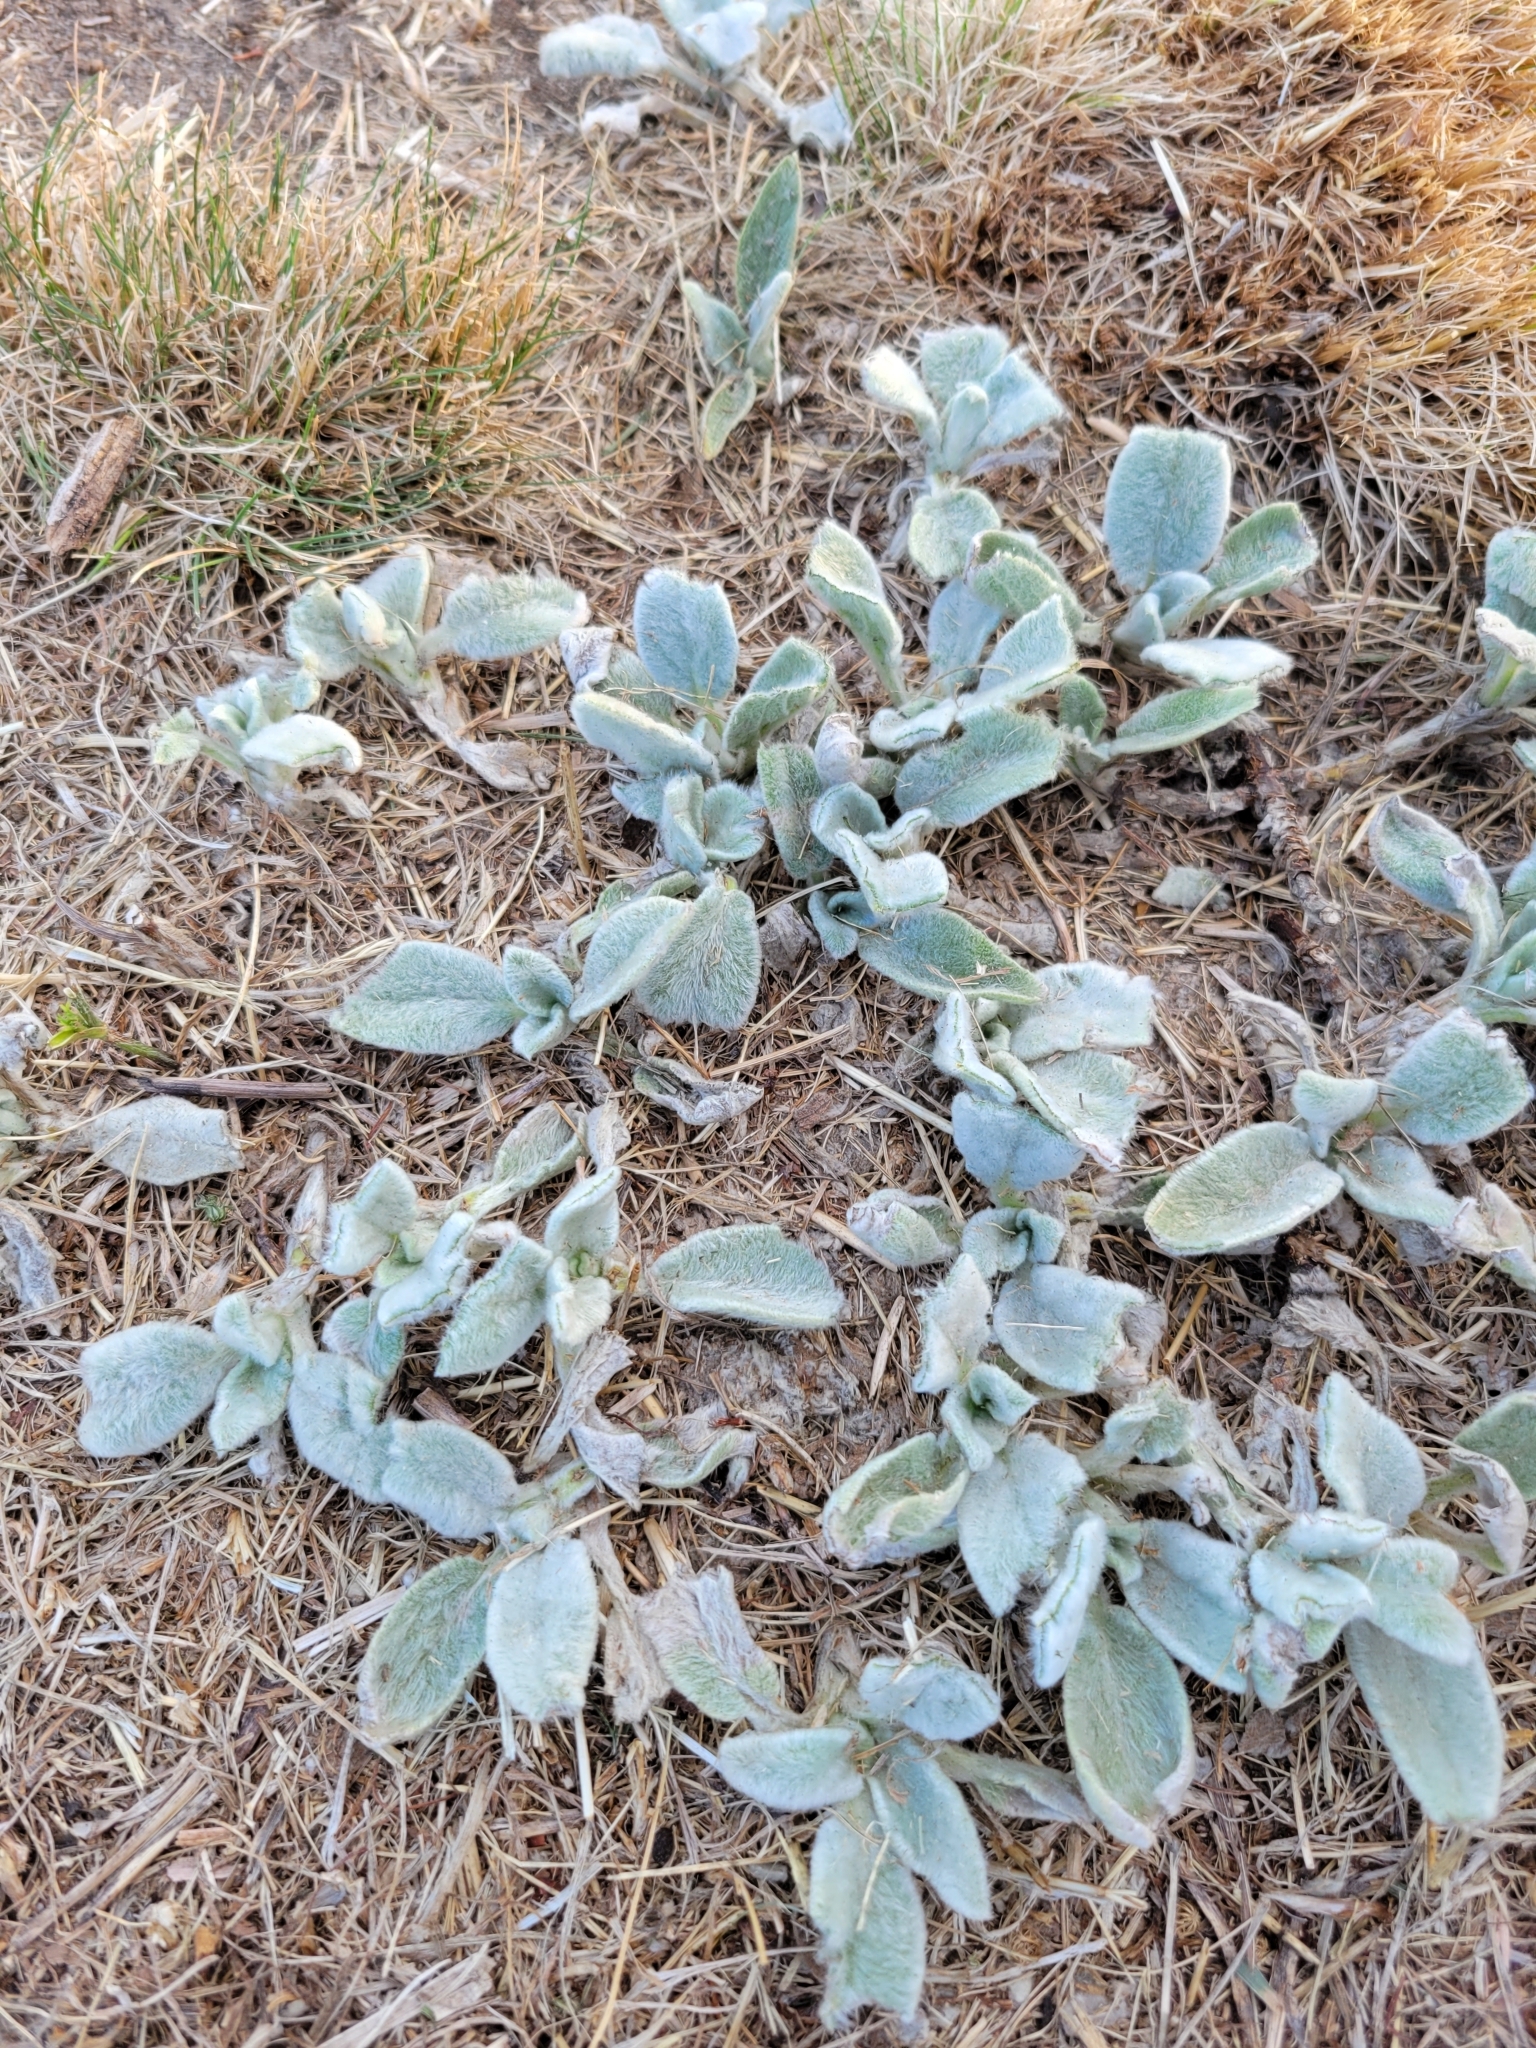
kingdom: Plantae
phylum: Tracheophyta
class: Magnoliopsida
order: Lamiales
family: Lamiaceae
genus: Stachys
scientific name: Stachys byzantina
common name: Lamb's-ear
